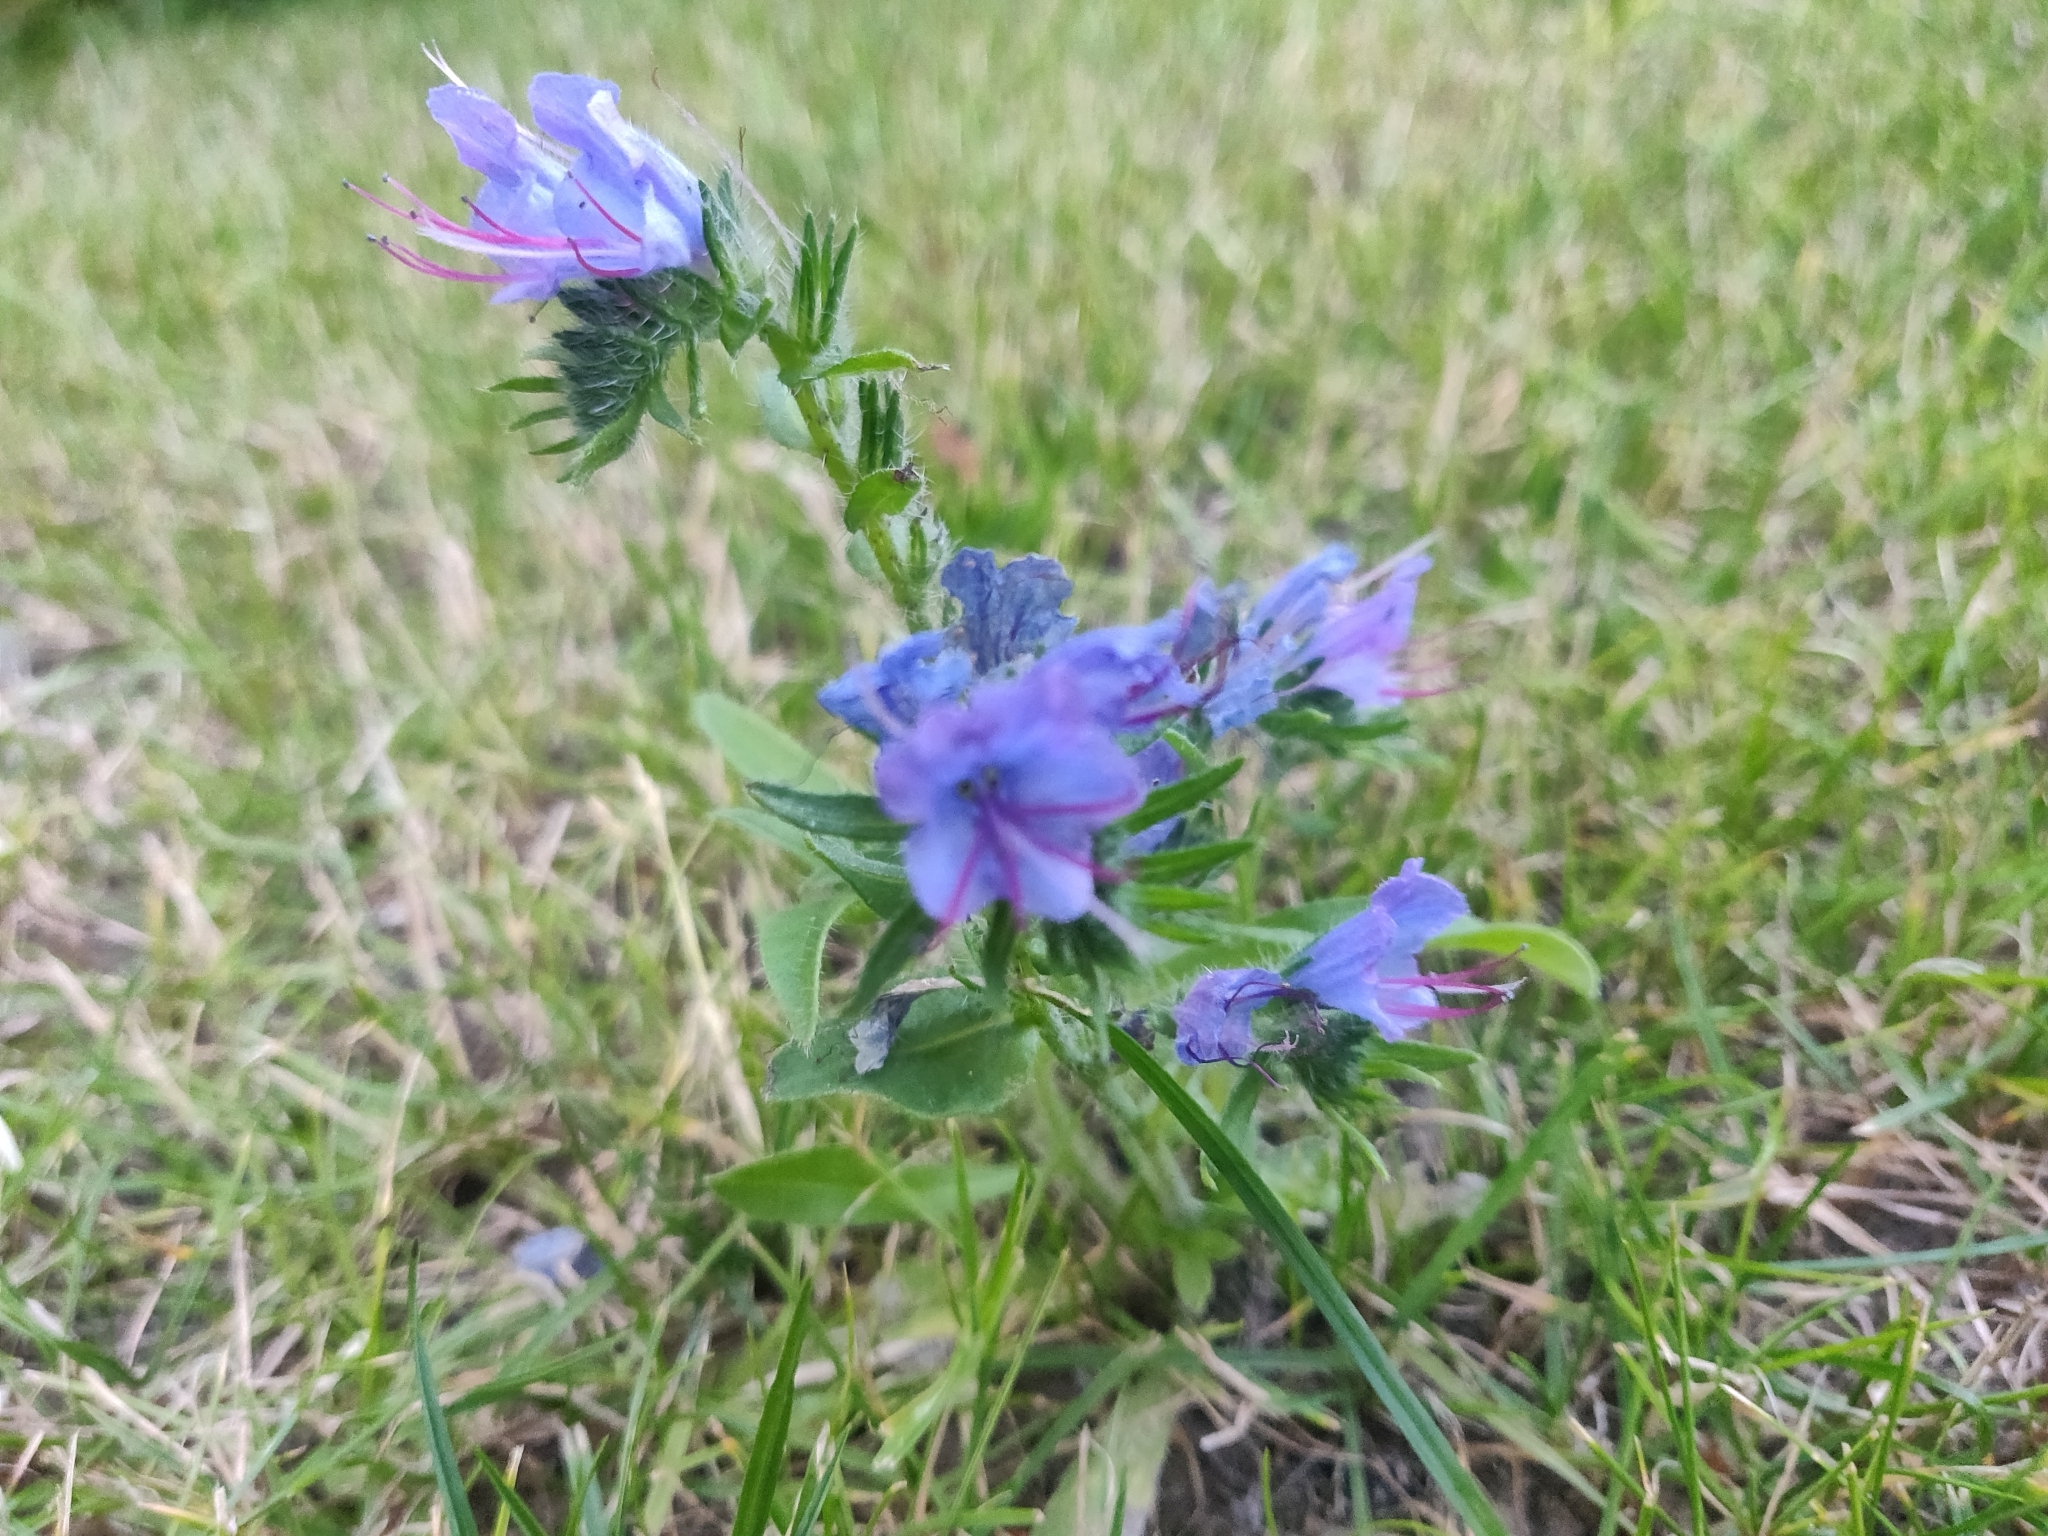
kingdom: Plantae
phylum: Tracheophyta
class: Magnoliopsida
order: Boraginales
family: Boraginaceae
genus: Echium
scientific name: Echium vulgare
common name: Common viper's bugloss
